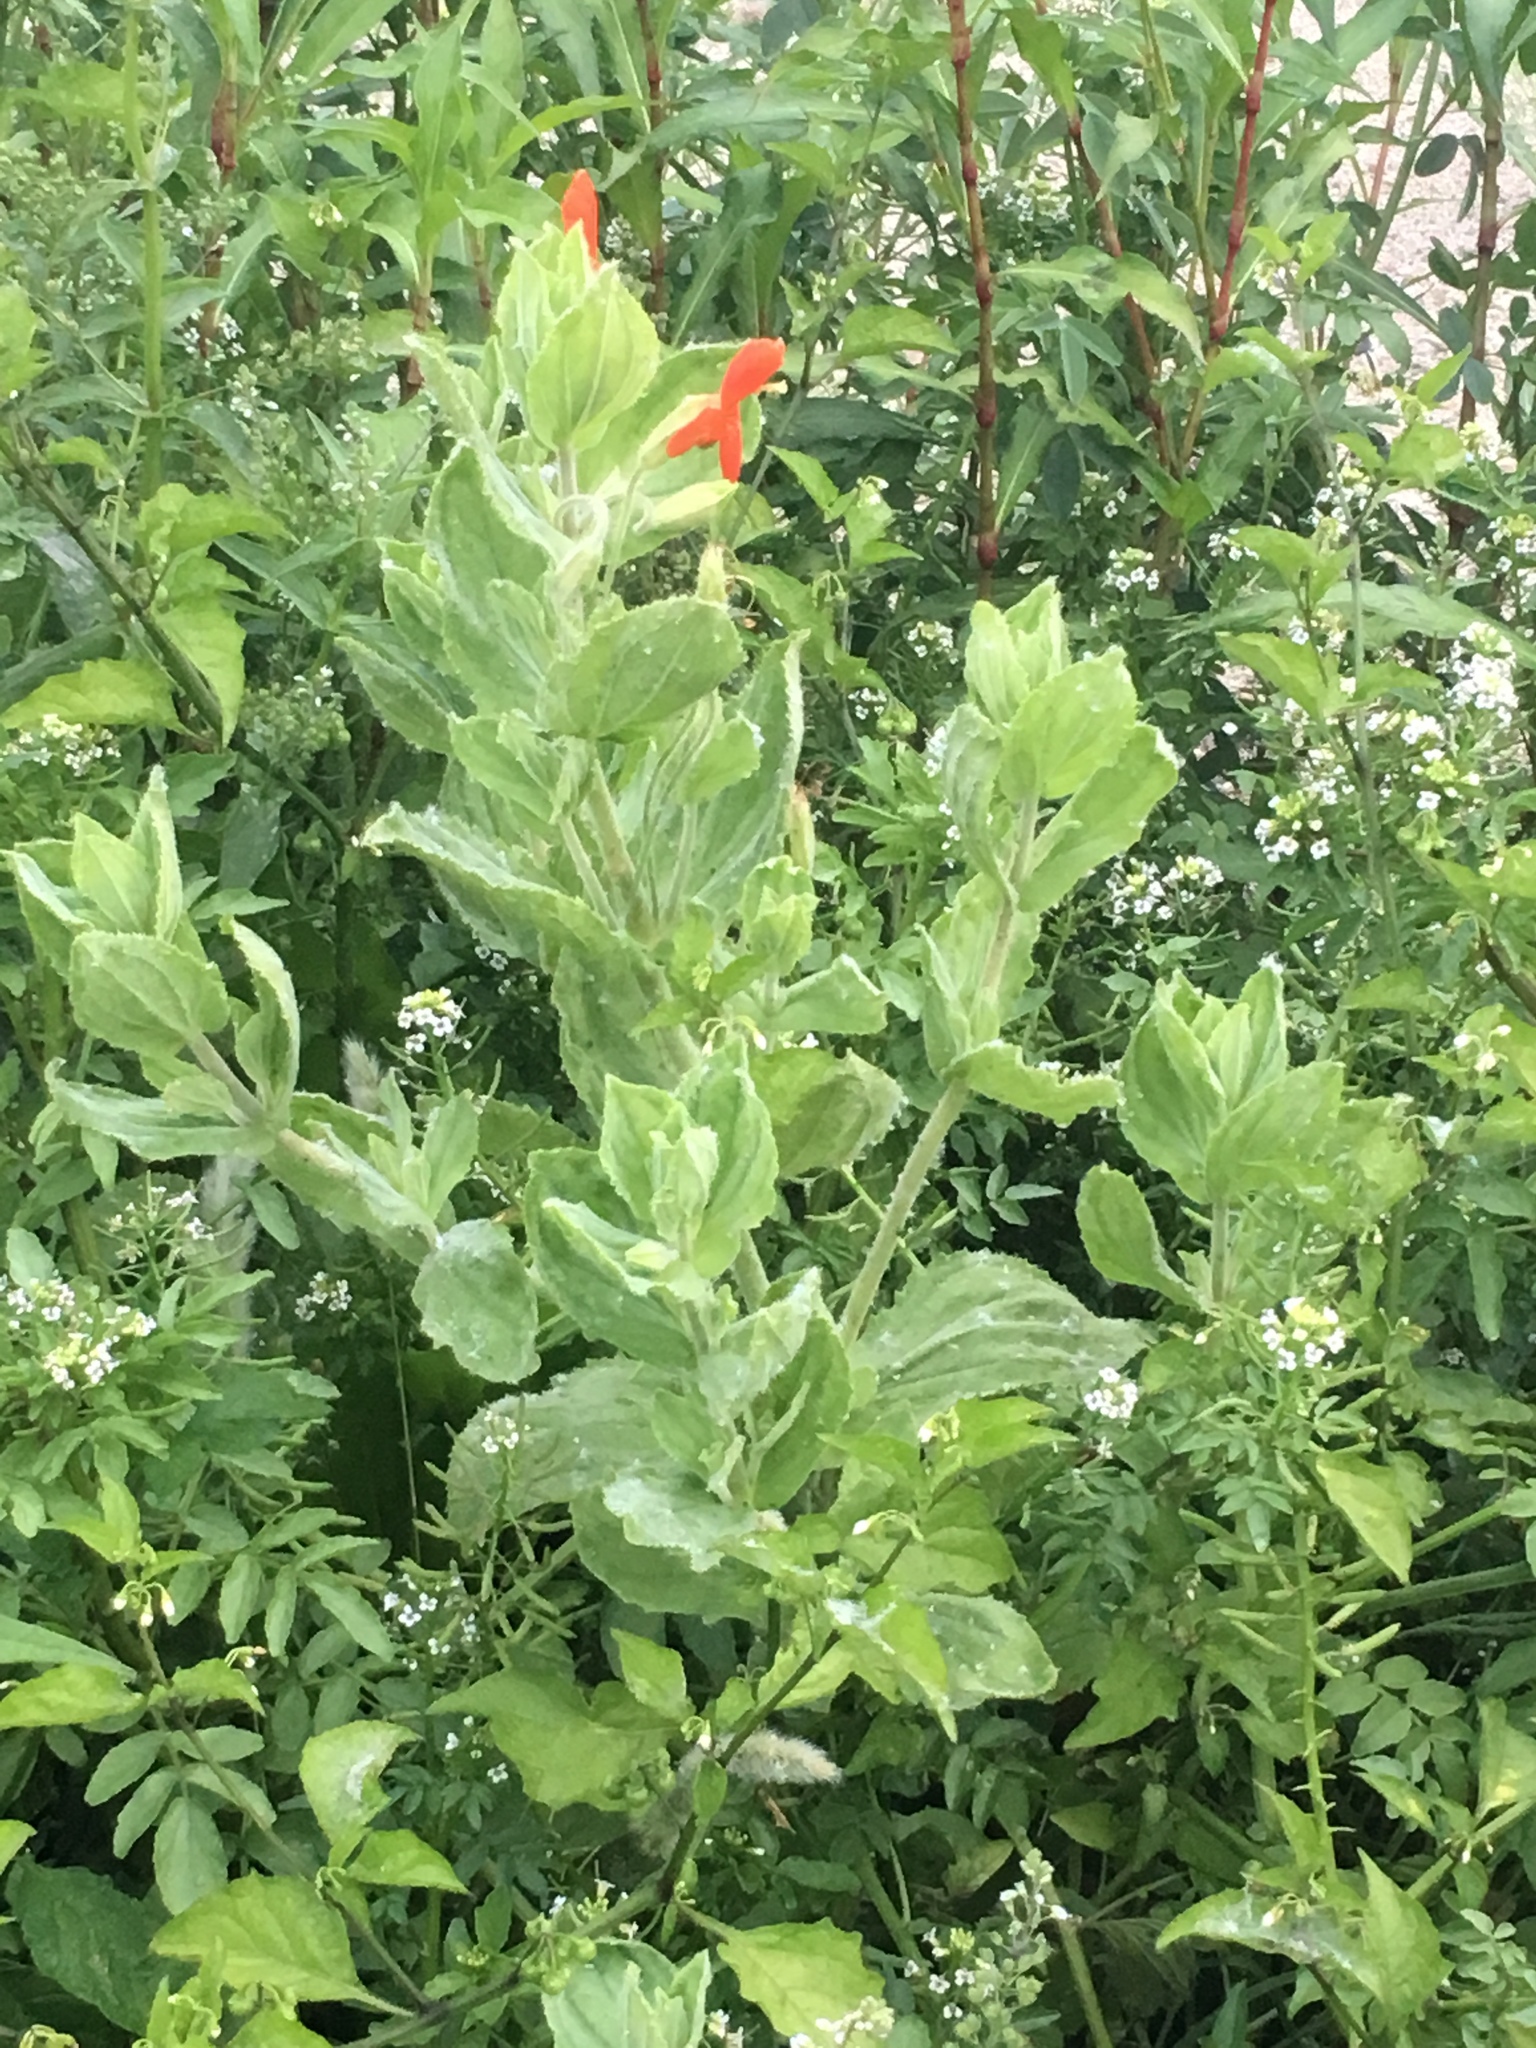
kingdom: Plantae
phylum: Tracheophyta
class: Magnoliopsida
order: Lamiales
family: Phrymaceae
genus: Erythranthe
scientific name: Erythranthe cardinalis
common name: Scarlet monkey-flower
